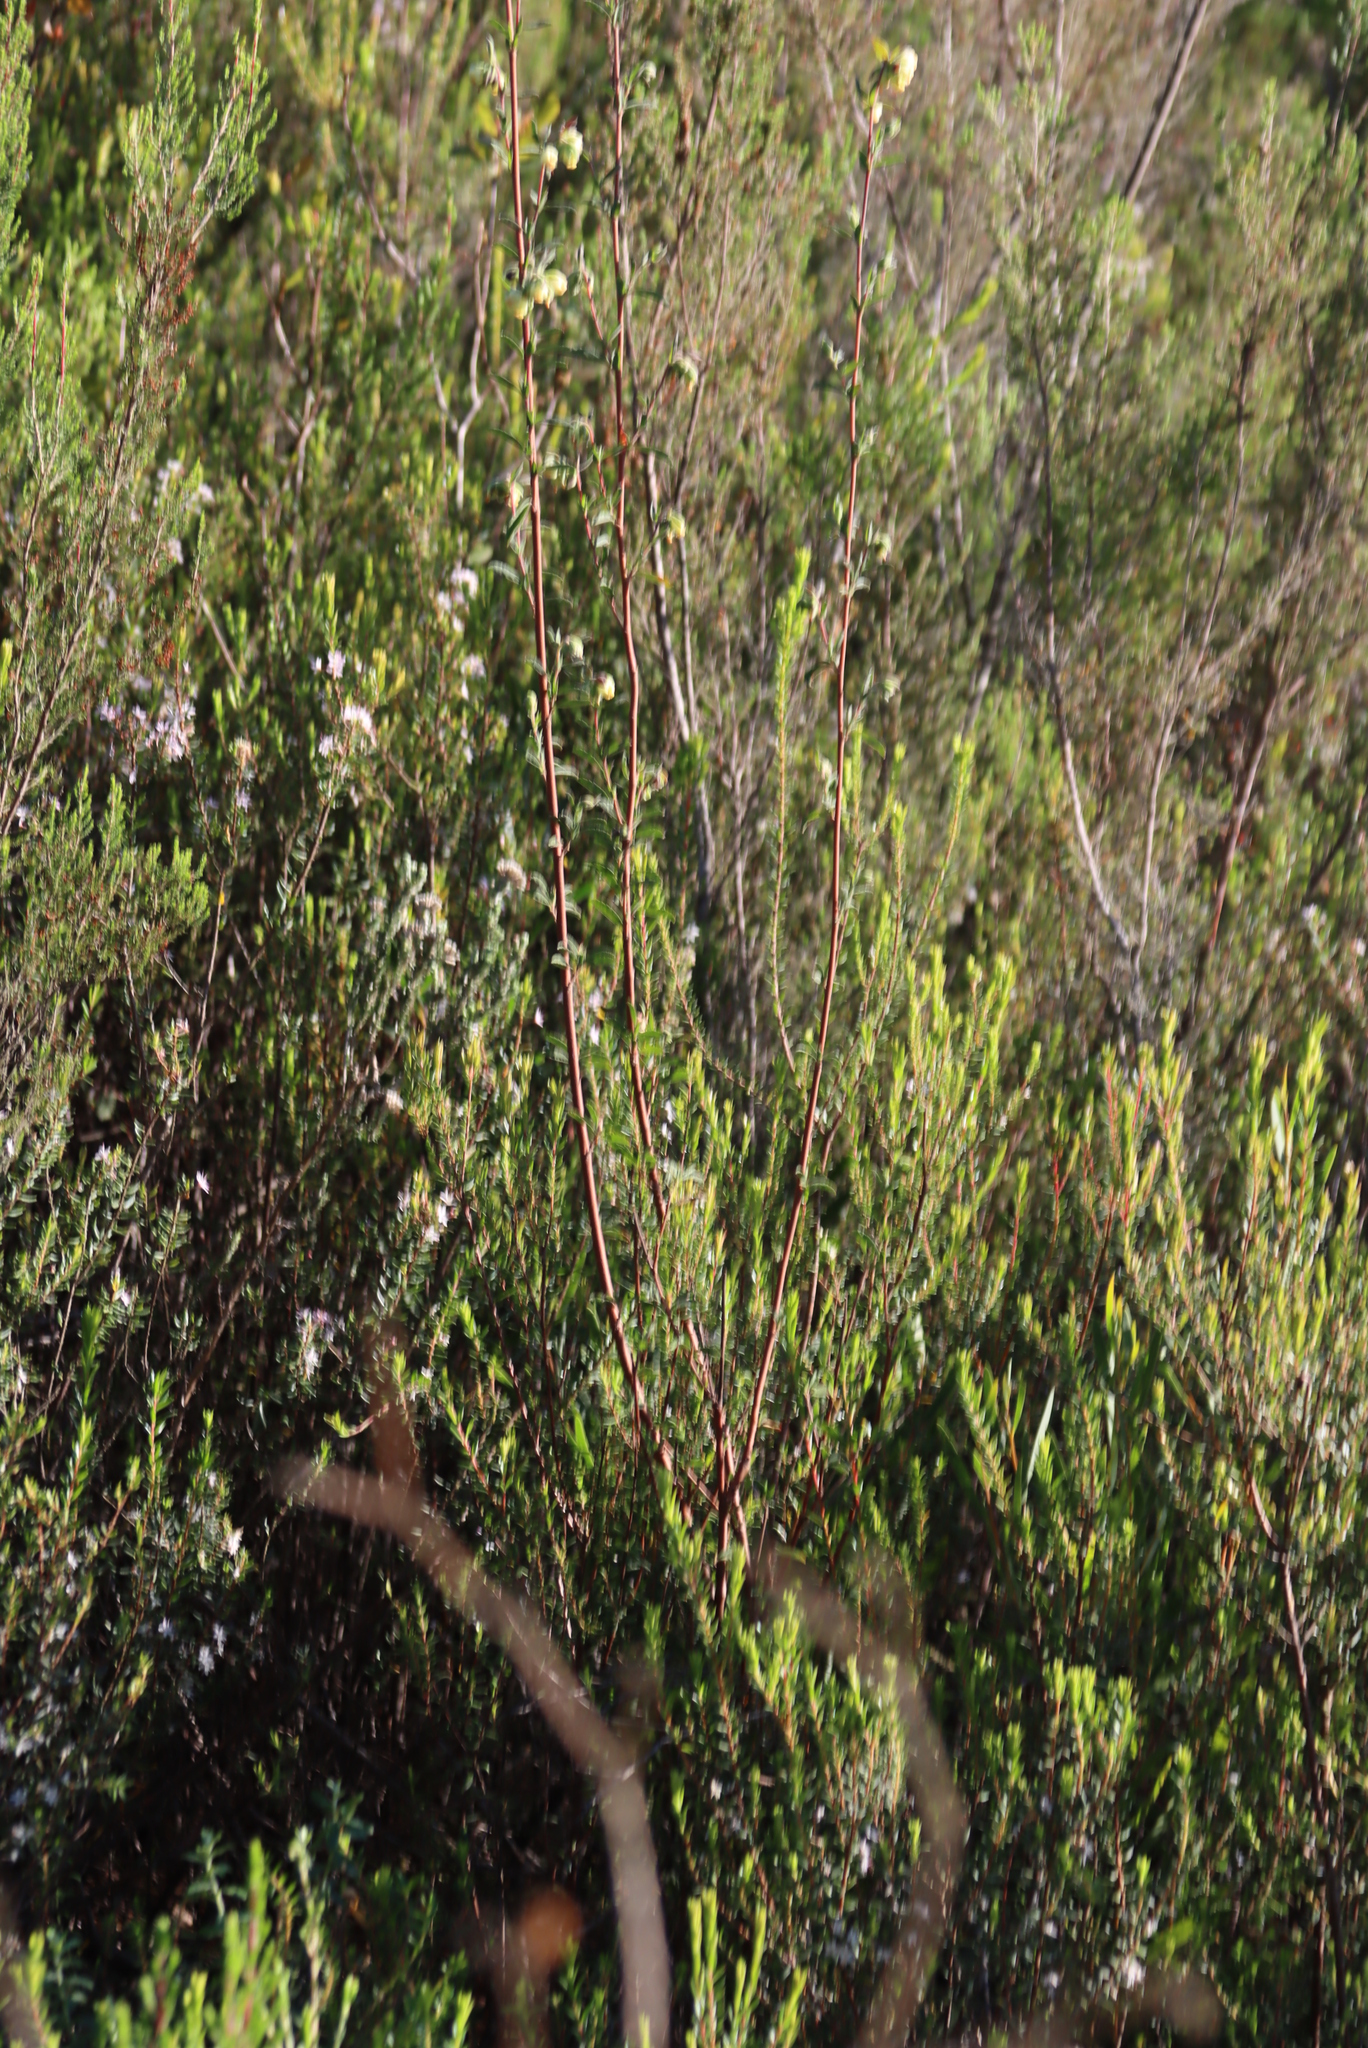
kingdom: Plantae
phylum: Tracheophyta
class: Magnoliopsida
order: Malvales
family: Malvaceae
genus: Hermannia
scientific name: Hermannia hyssopifolia
